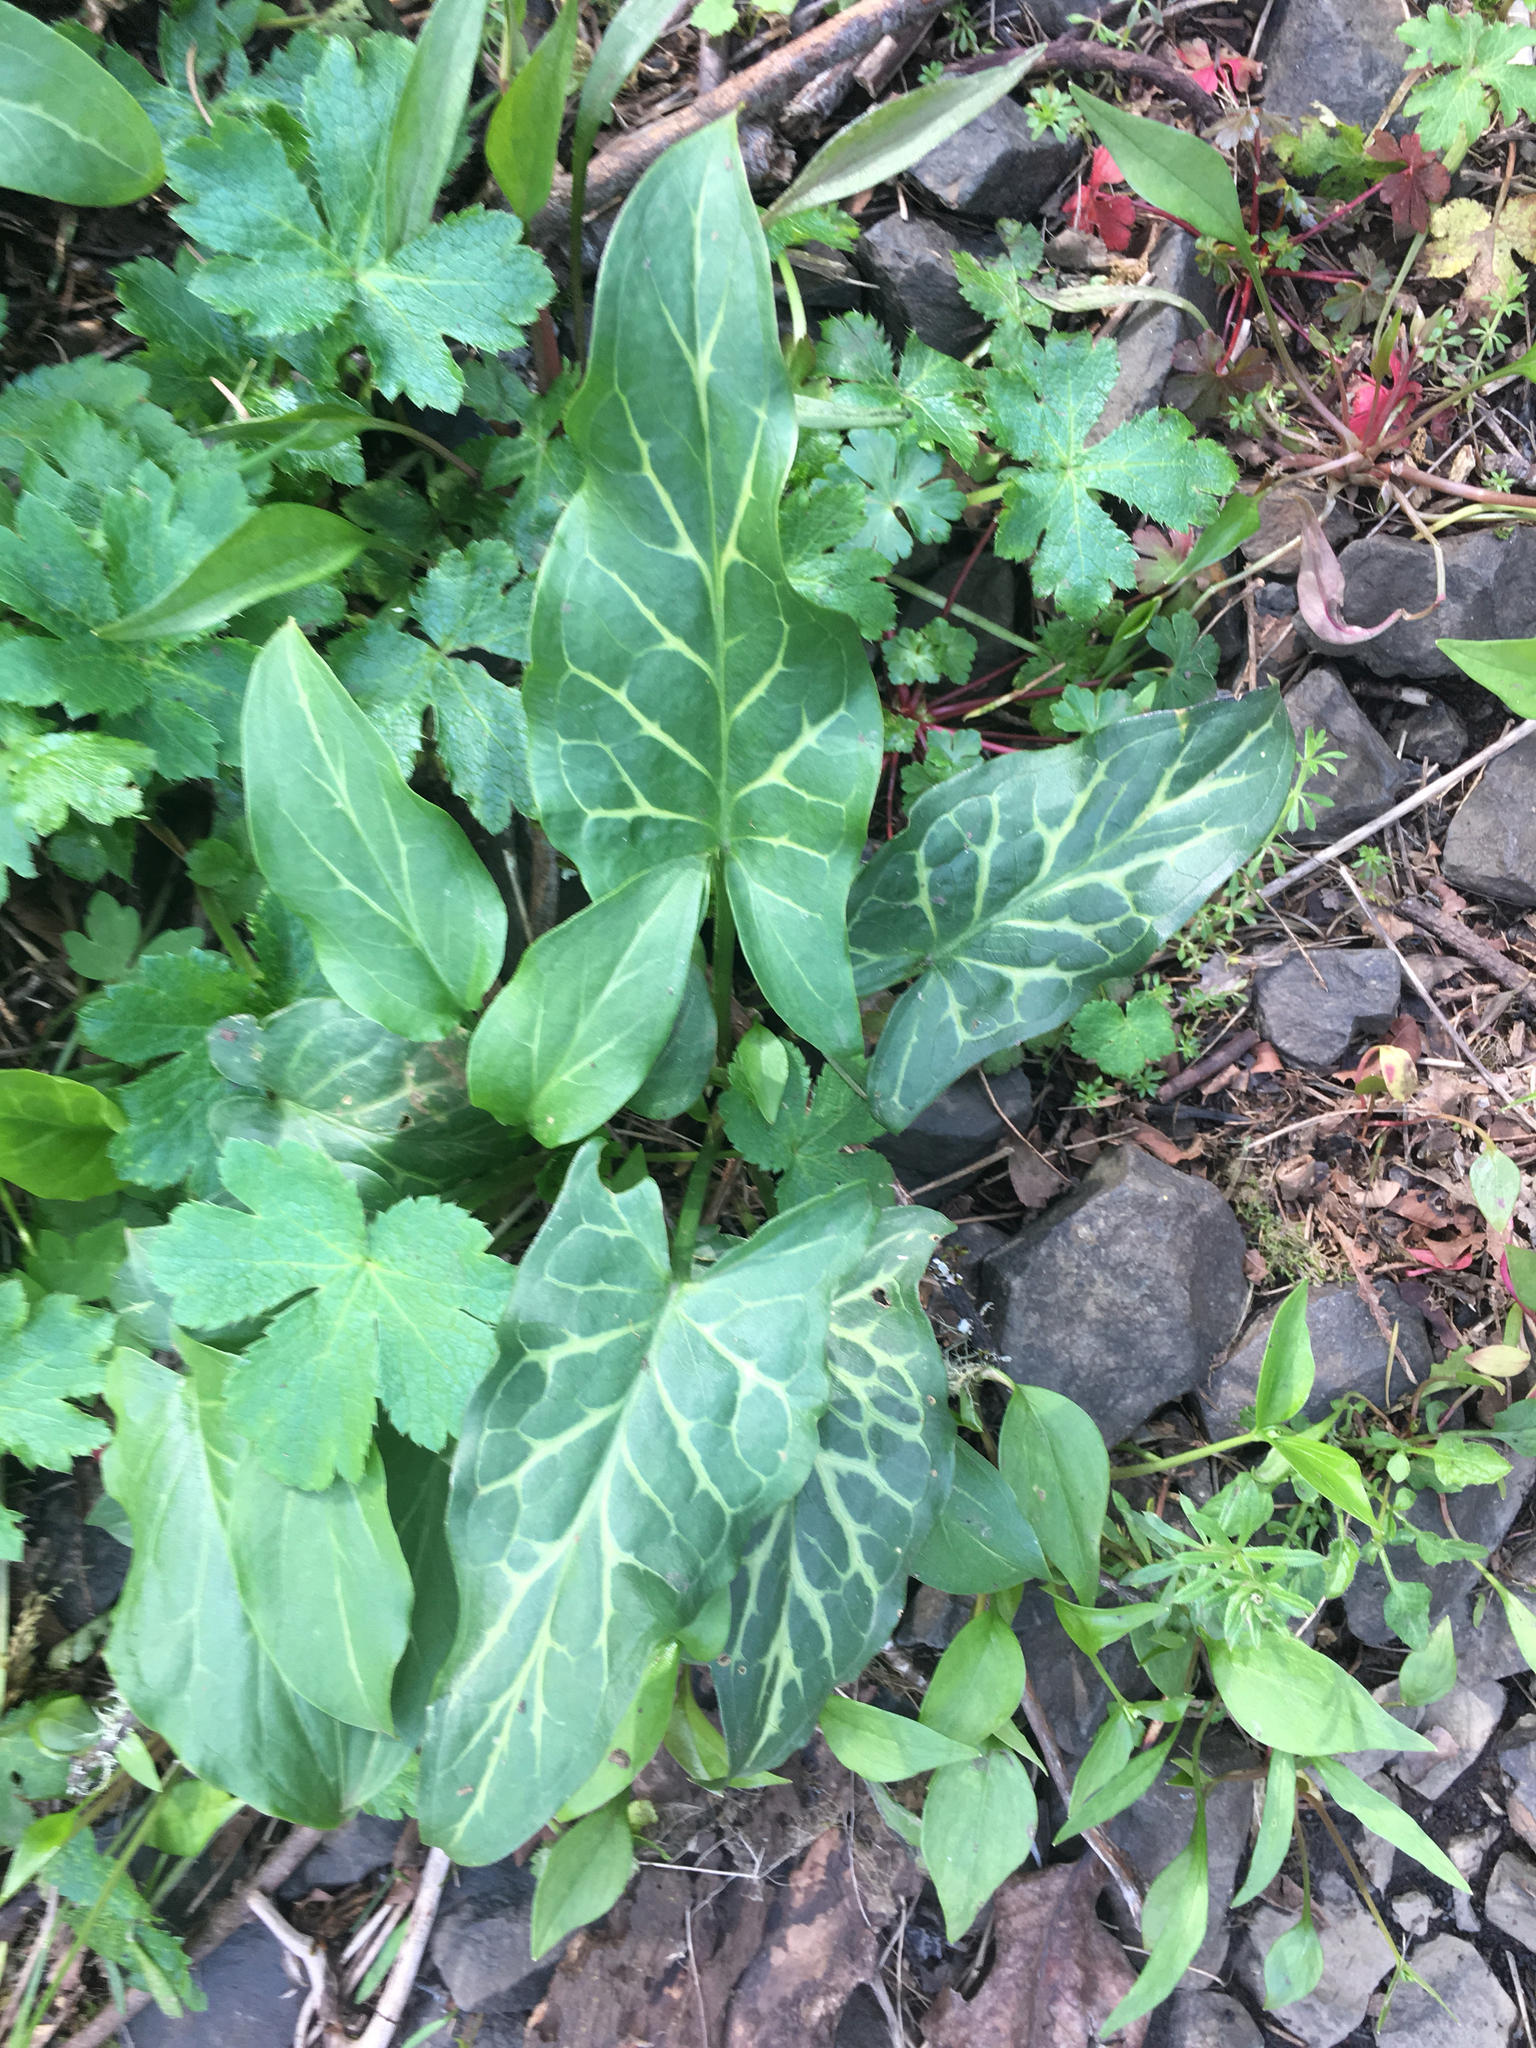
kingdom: Plantae
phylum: Tracheophyta
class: Liliopsida
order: Alismatales
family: Araceae
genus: Arum
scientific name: Arum italicum
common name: Italian lords-and-ladies
